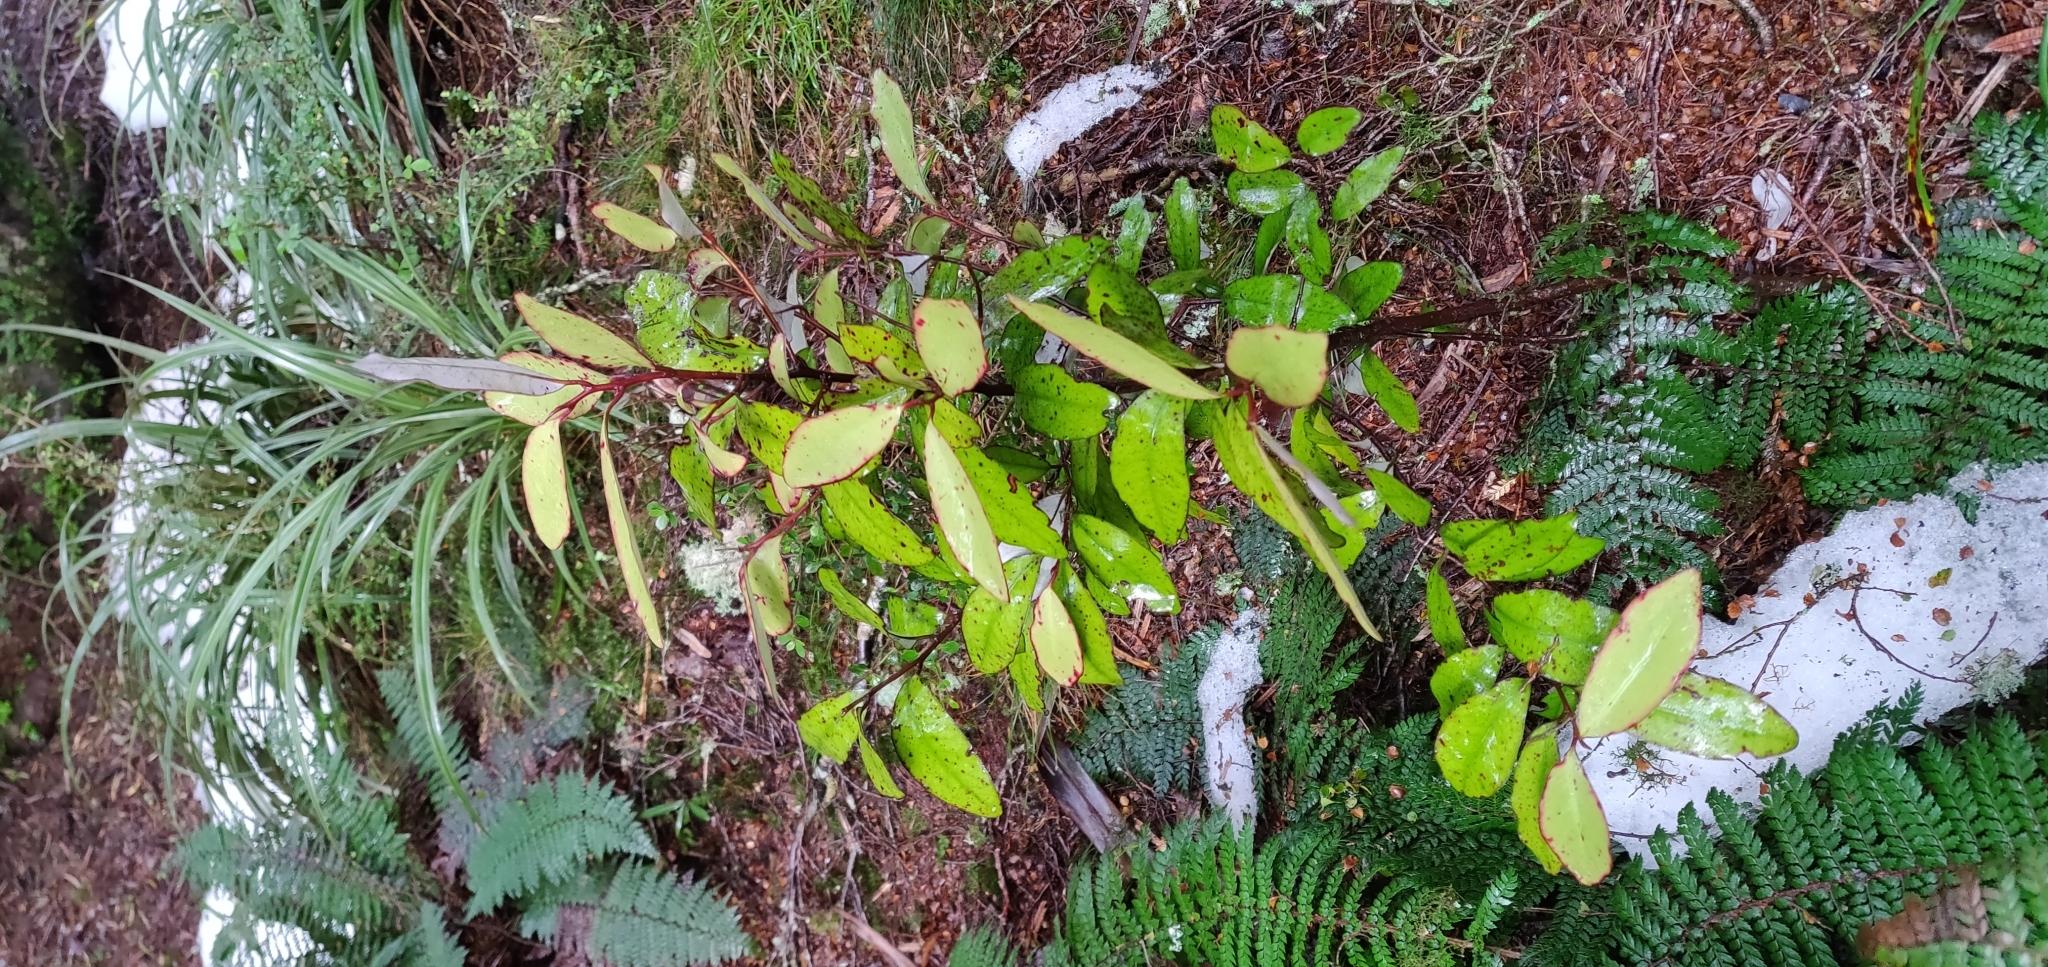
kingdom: Plantae
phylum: Tracheophyta
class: Magnoliopsida
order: Canellales
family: Winteraceae
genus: Pseudowintera
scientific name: Pseudowintera colorata
